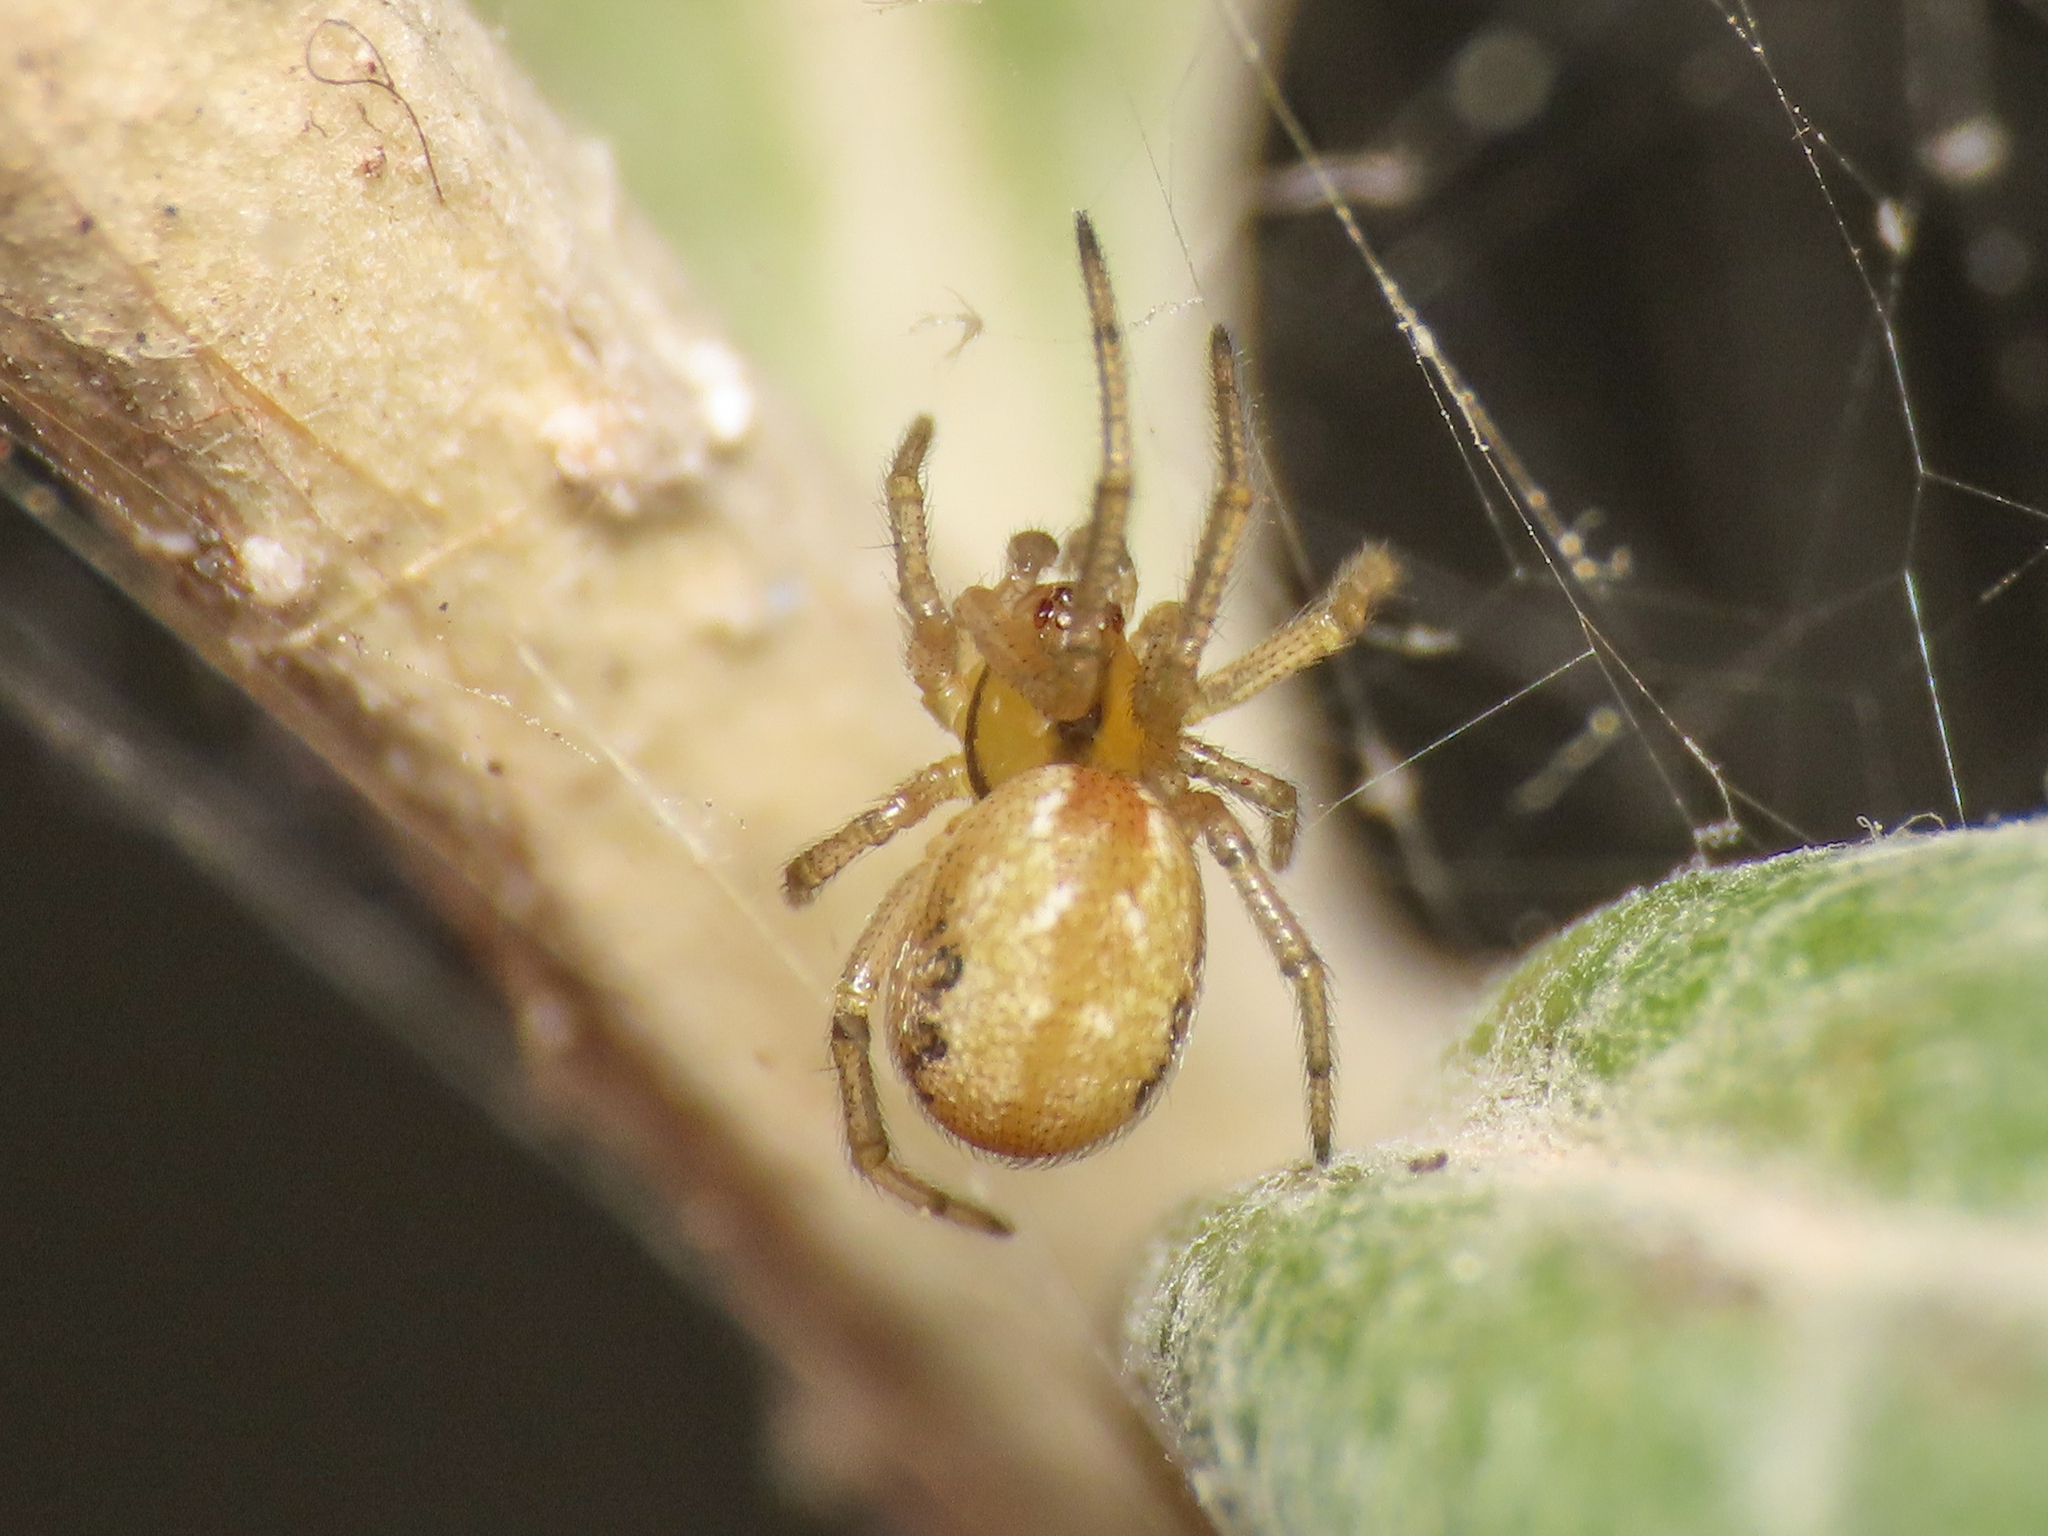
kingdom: Animalia
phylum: Arthropoda
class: Arachnida
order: Araneae
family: Theridiidae
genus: Kochiura
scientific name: Kochiura aulica
